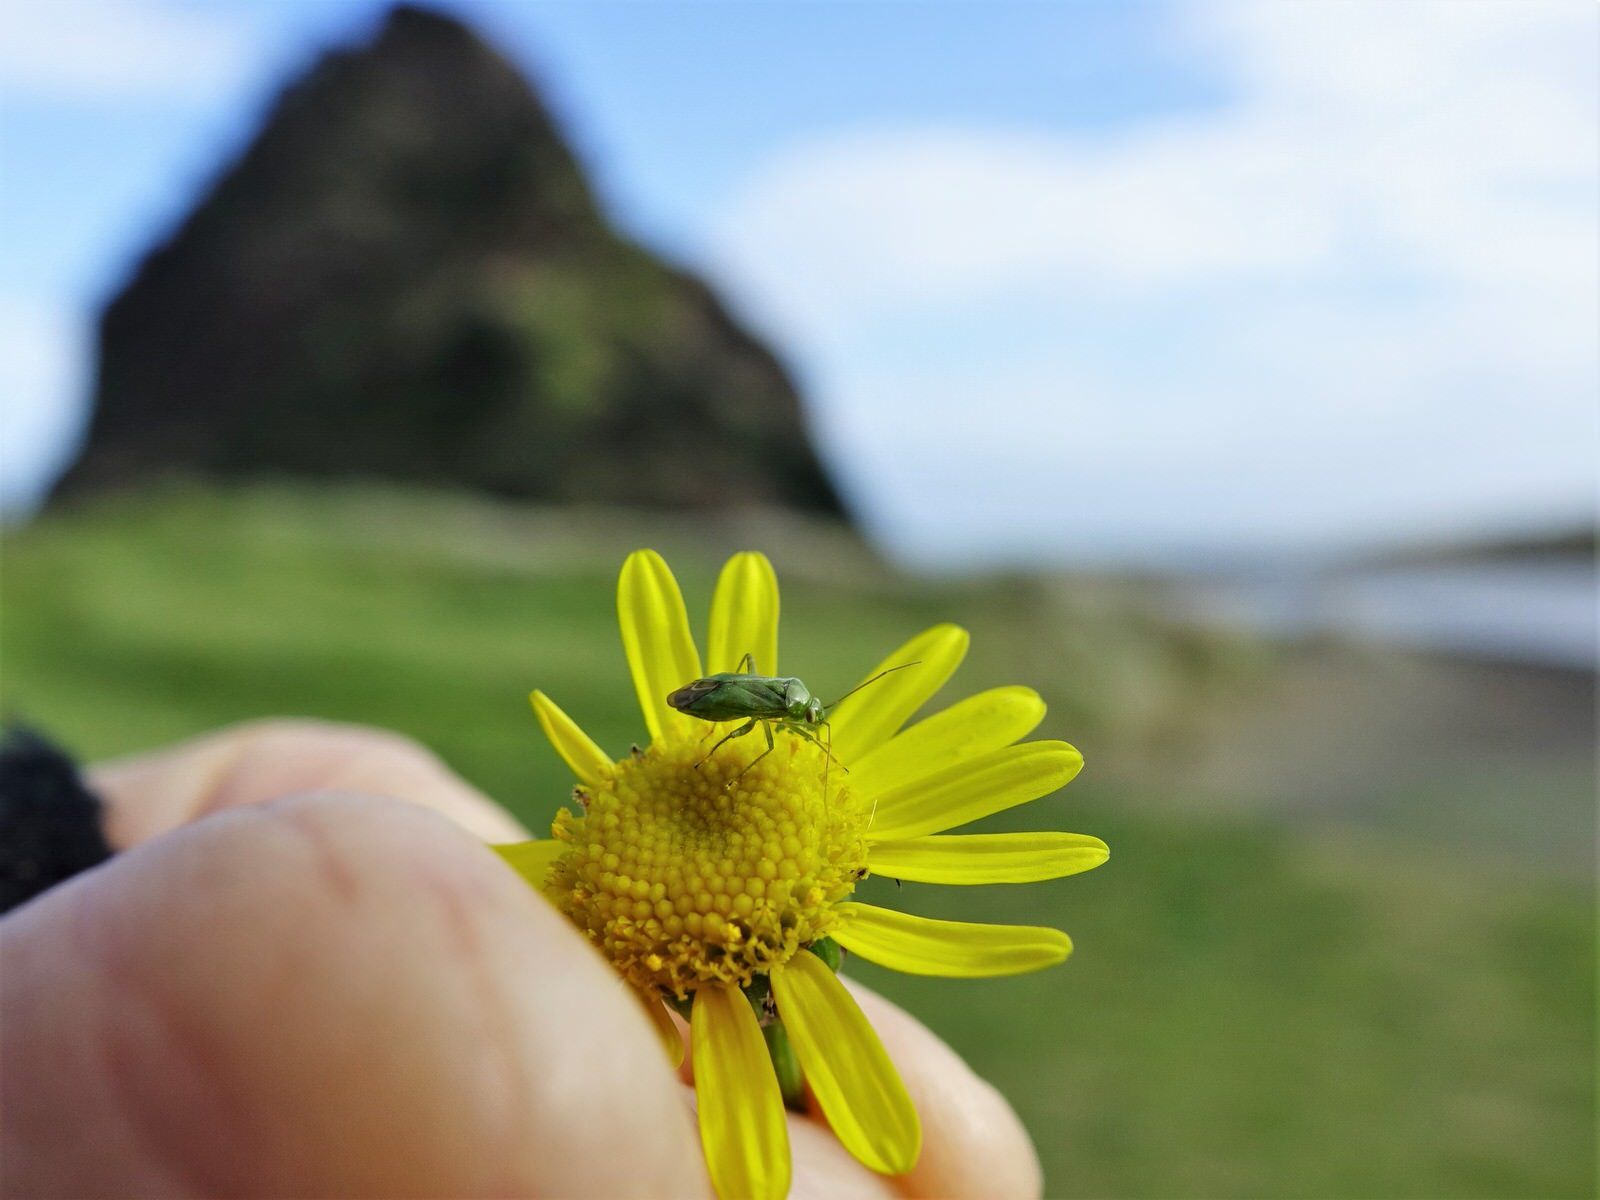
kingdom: Animalia
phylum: Arthropoda
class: Insecta
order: Hemiptera
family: Miridae
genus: Taylorilygus
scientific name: Taylorilygus apicalis
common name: Plant bug
